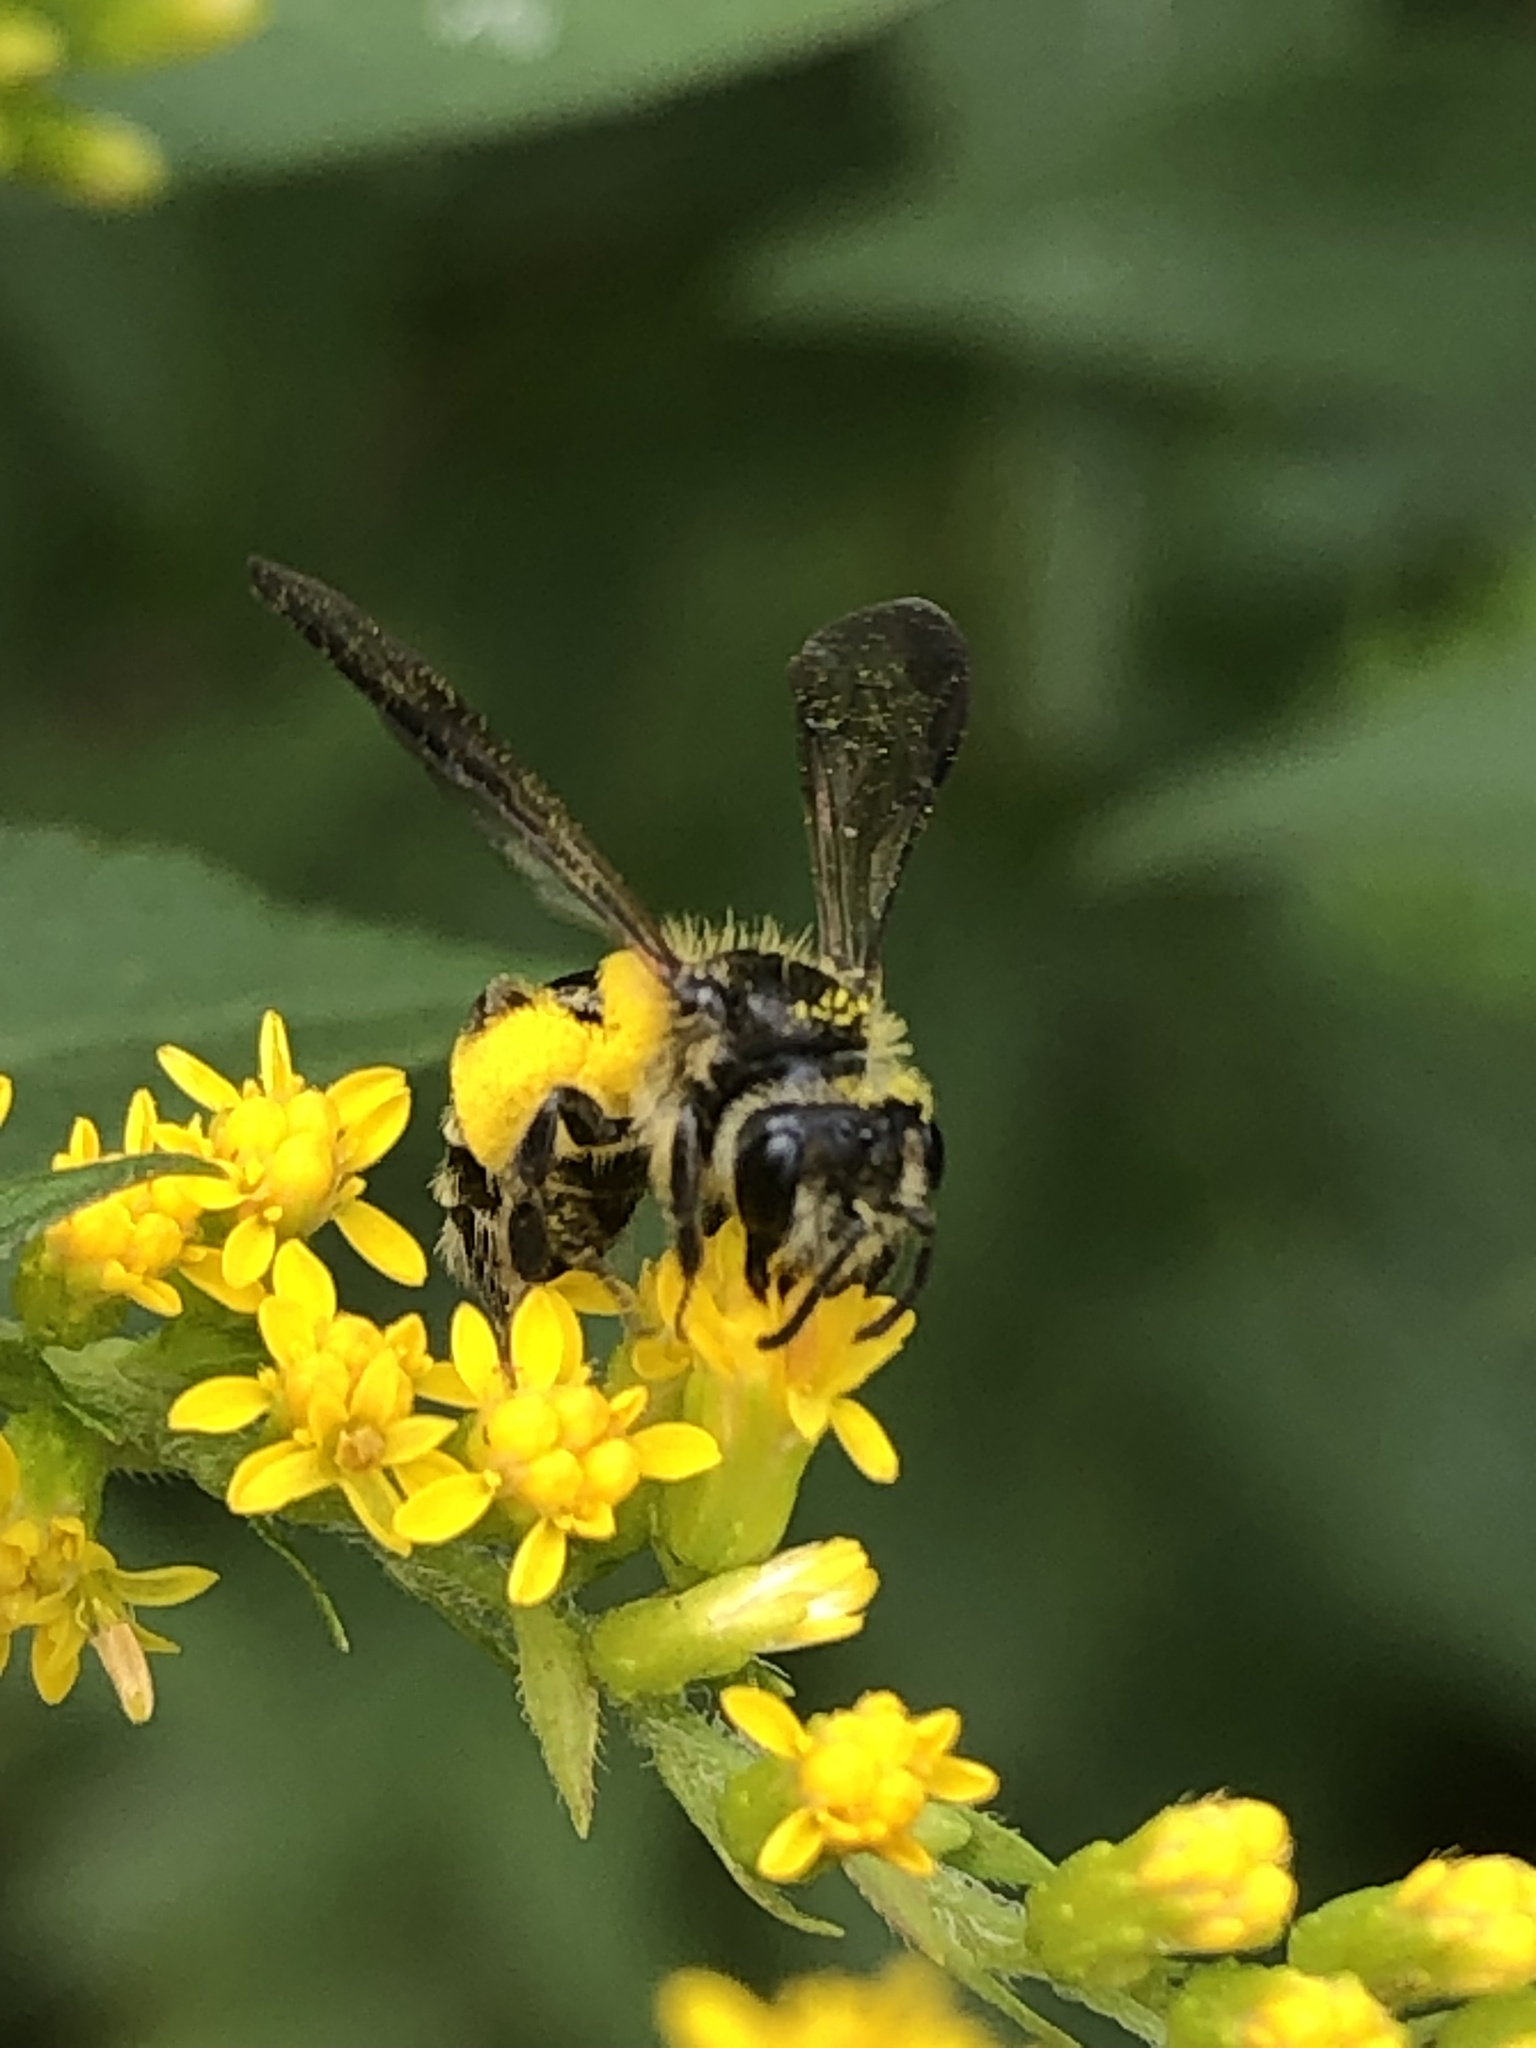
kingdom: Animalia
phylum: Arthropoda
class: Insecta
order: Hymenoptera
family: Andrenidae
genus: Andrena
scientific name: Andrena nubecula
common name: Cloudy-winged mining bee
